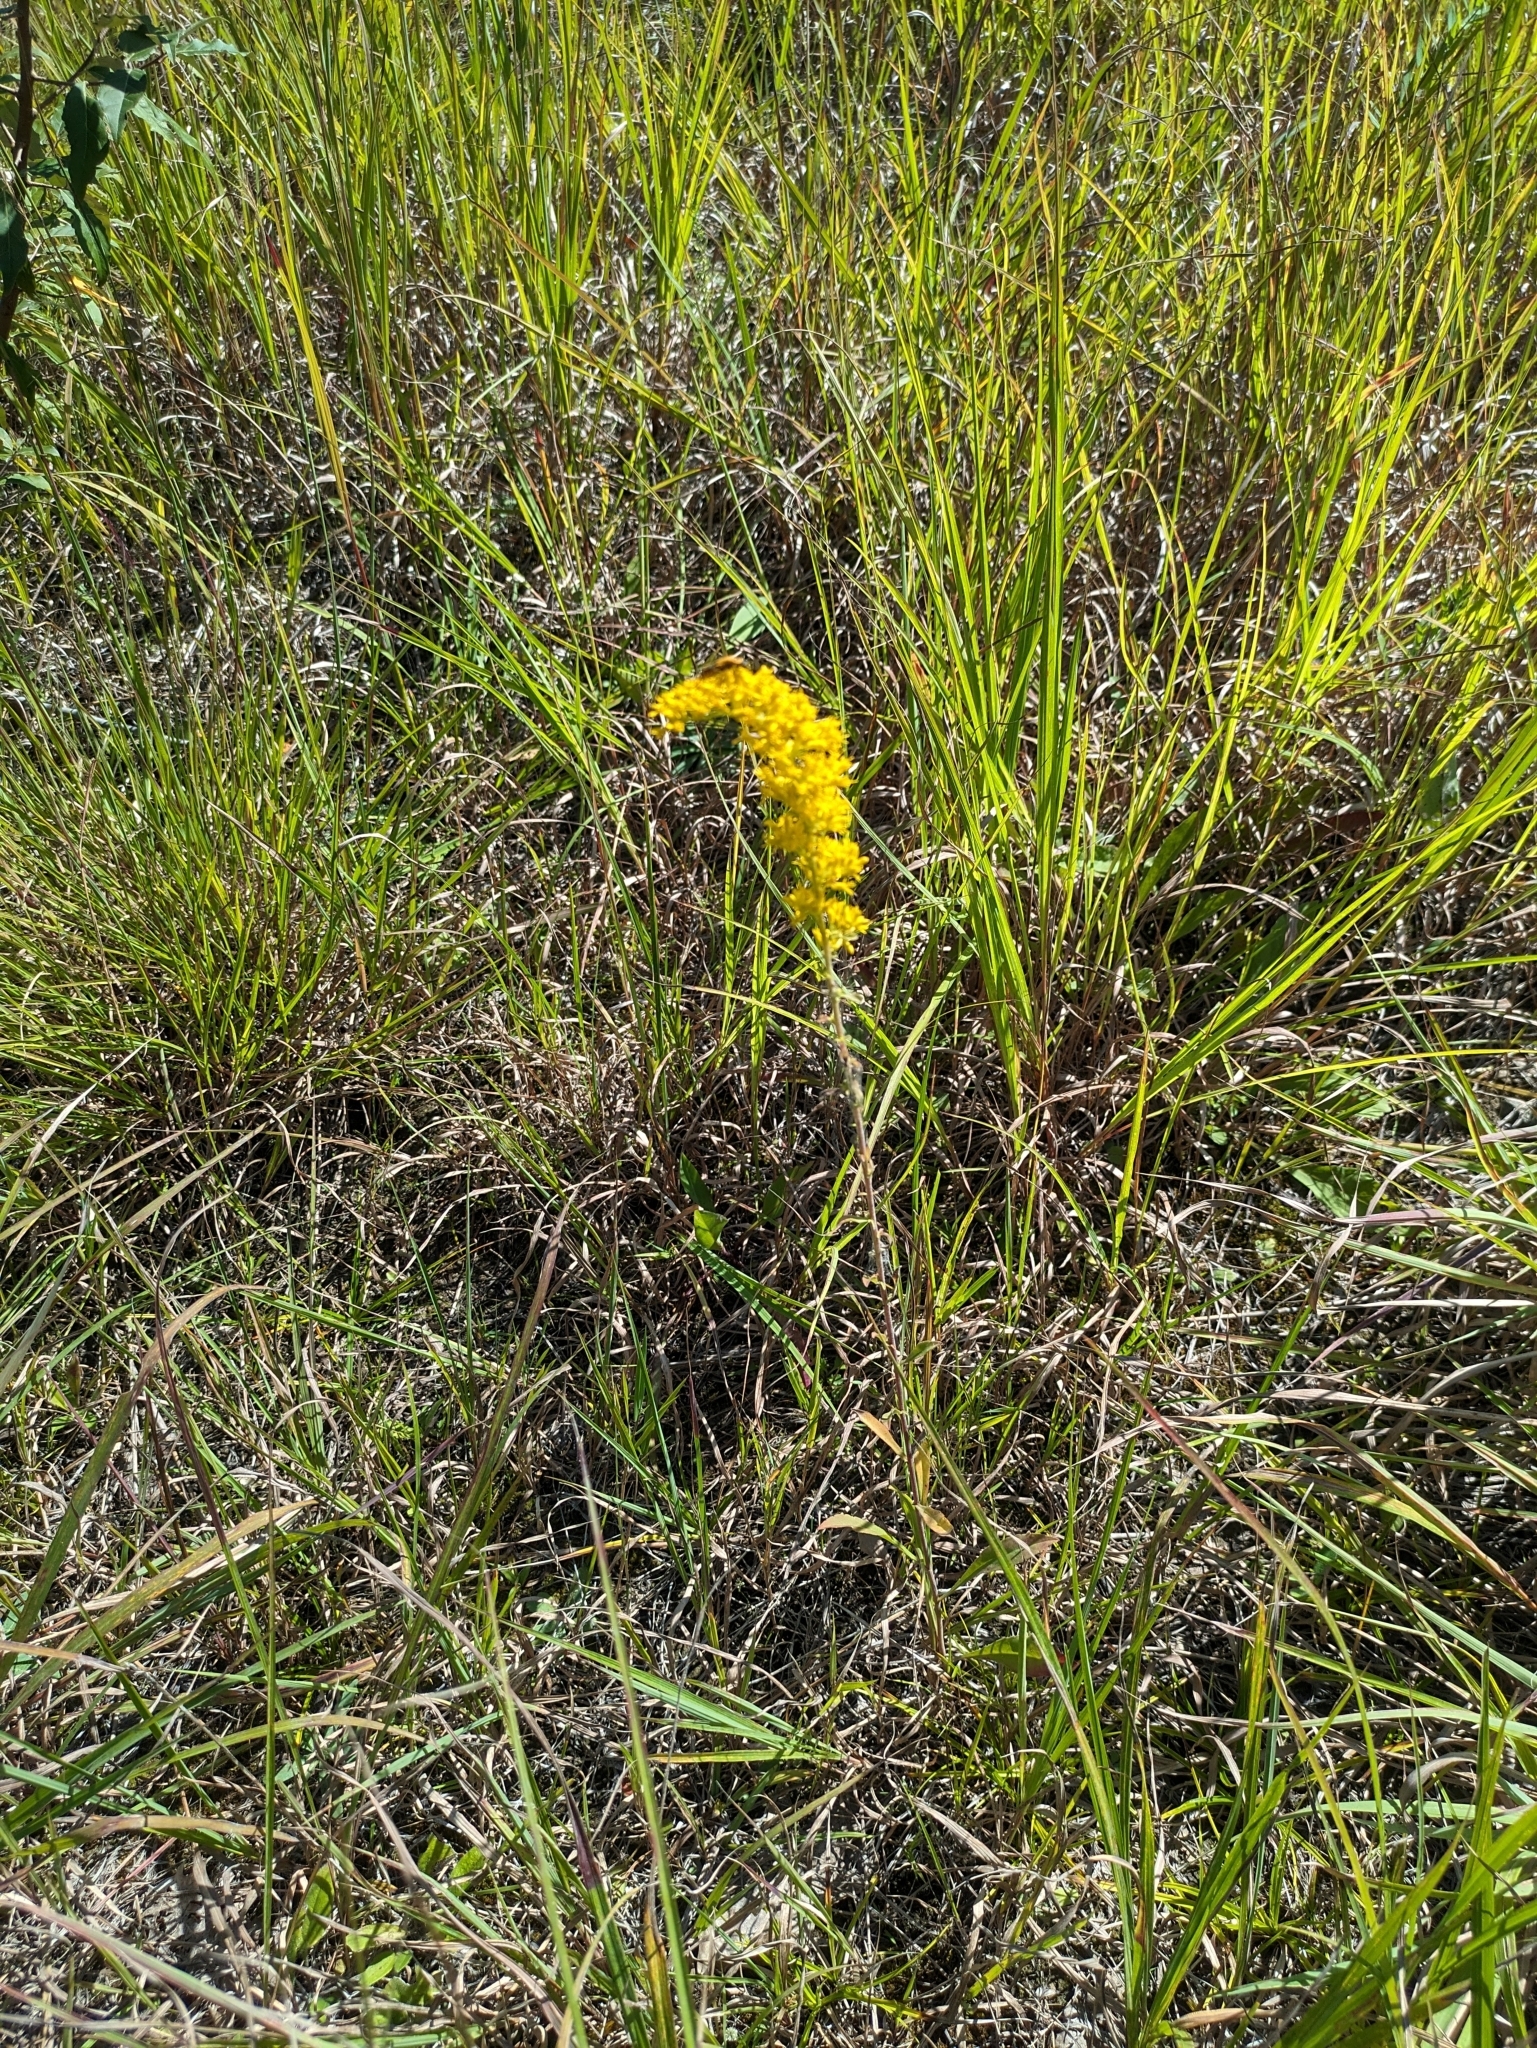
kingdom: Plantae
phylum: Tracheophyta
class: Magnoliopsida
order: Asterales
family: Asteraceae
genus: Solidago
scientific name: Solidago nemoralis
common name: Grey goldenrod
